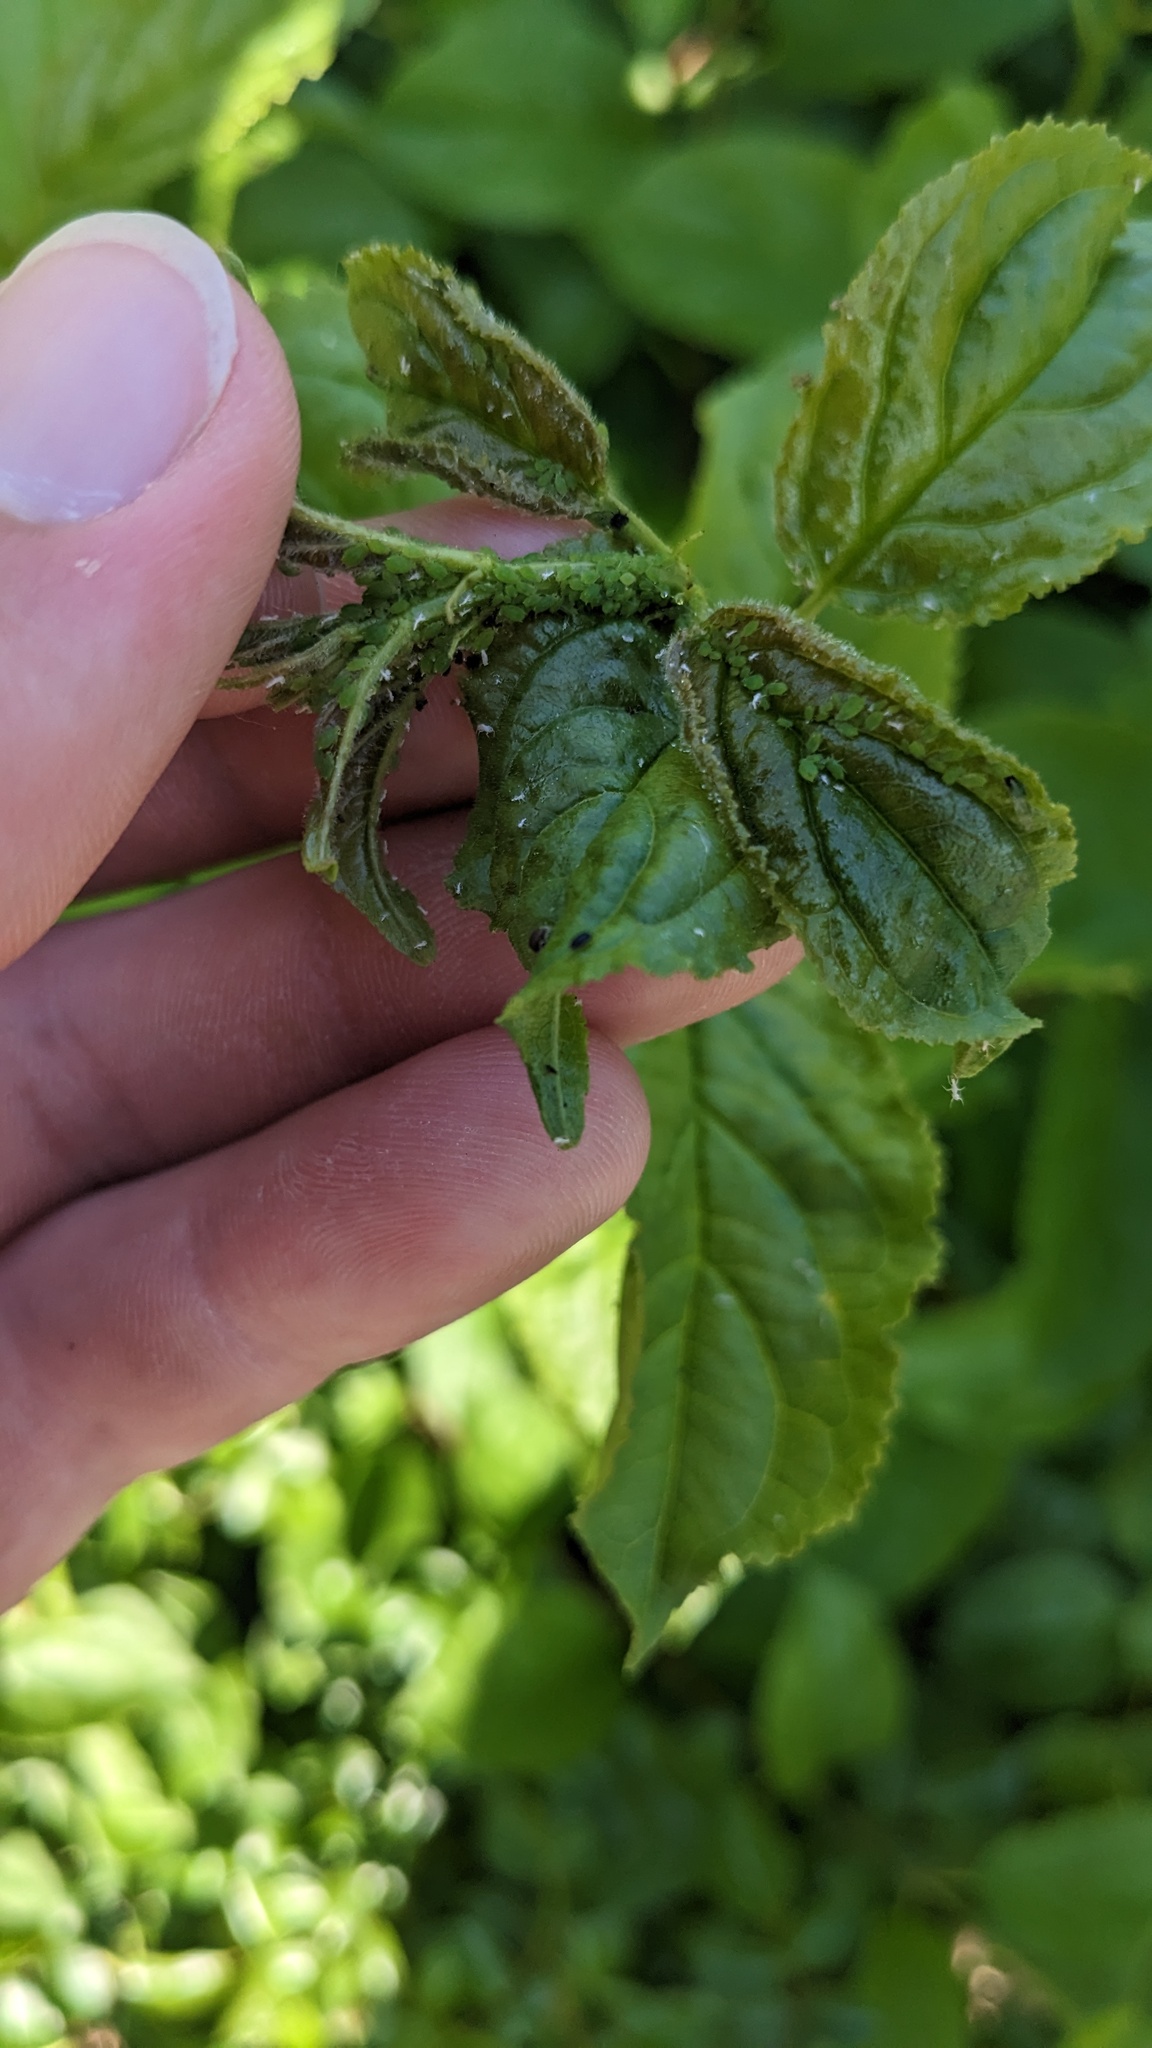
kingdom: Plantae
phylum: Tracheophyta
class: Magnoliopsida
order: Rosales
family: Rhamnaceae
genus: Rhamnus
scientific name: Rhamnus cathartica
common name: Common buckthorn
